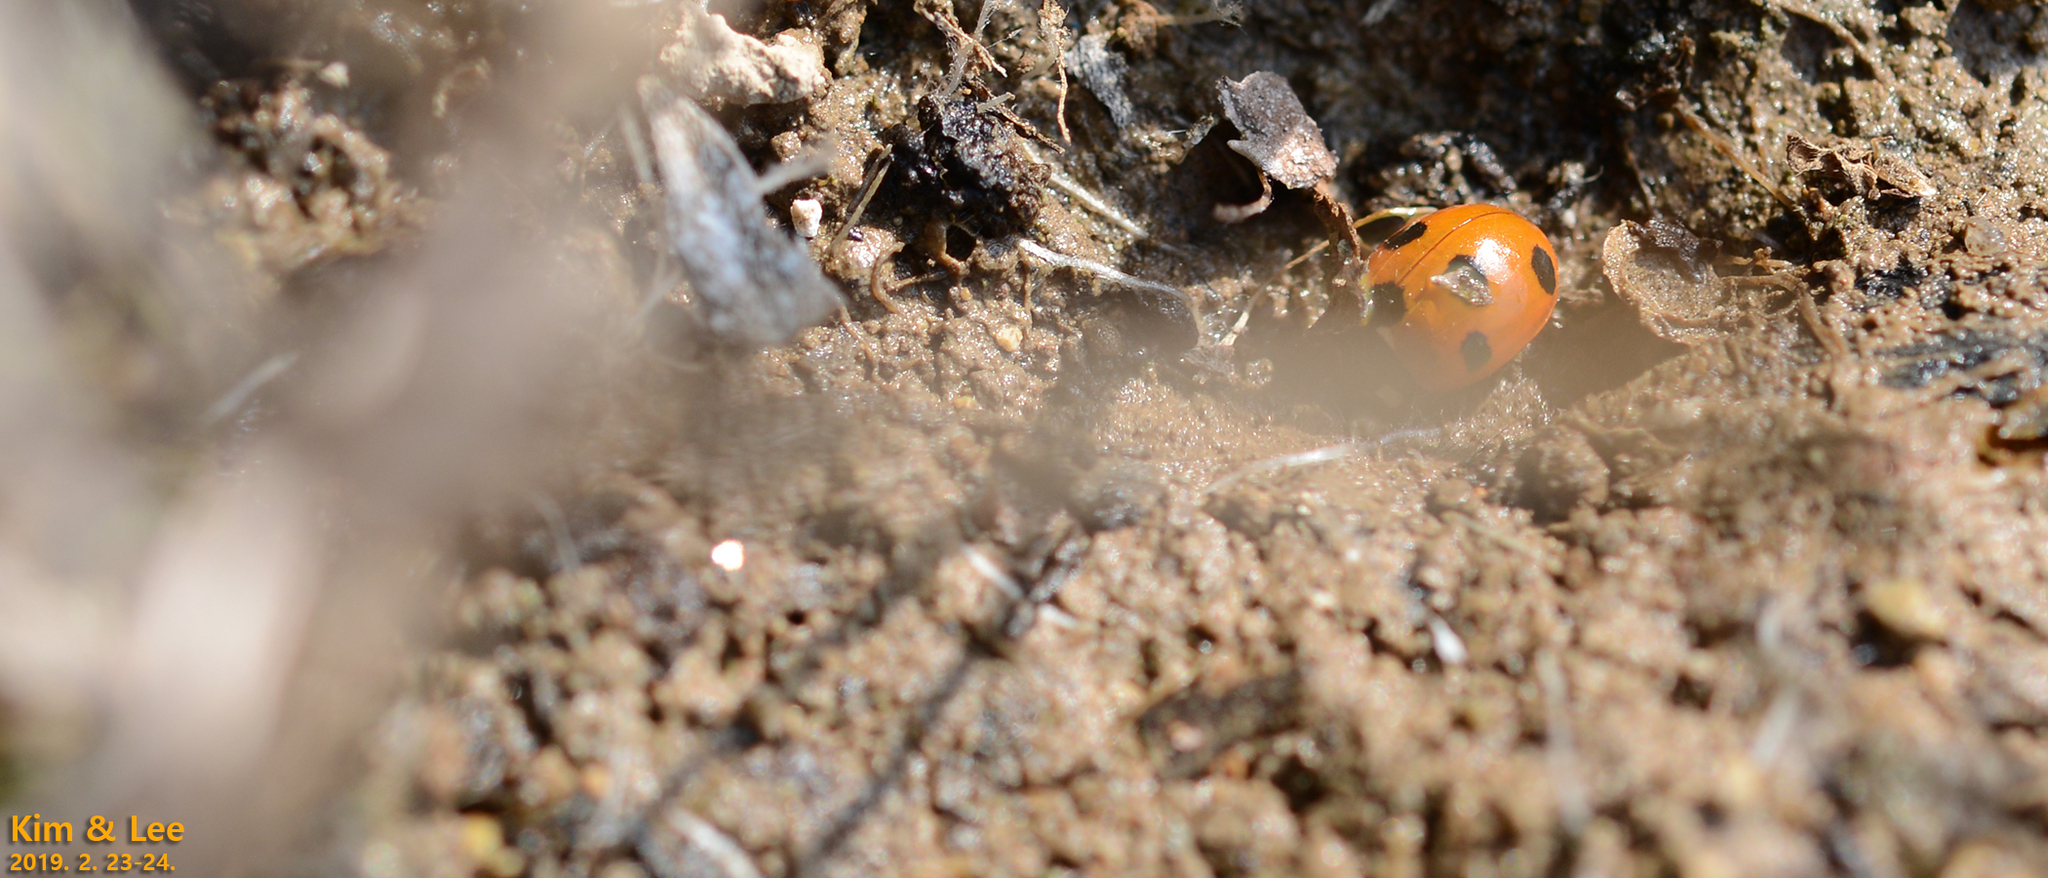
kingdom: Animalia
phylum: Arthropoda
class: Insecta
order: Coleoptera
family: Coccinellidae
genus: Coccinella
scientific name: Coccinella septempunctata
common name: Sevenspotted lady beetle
